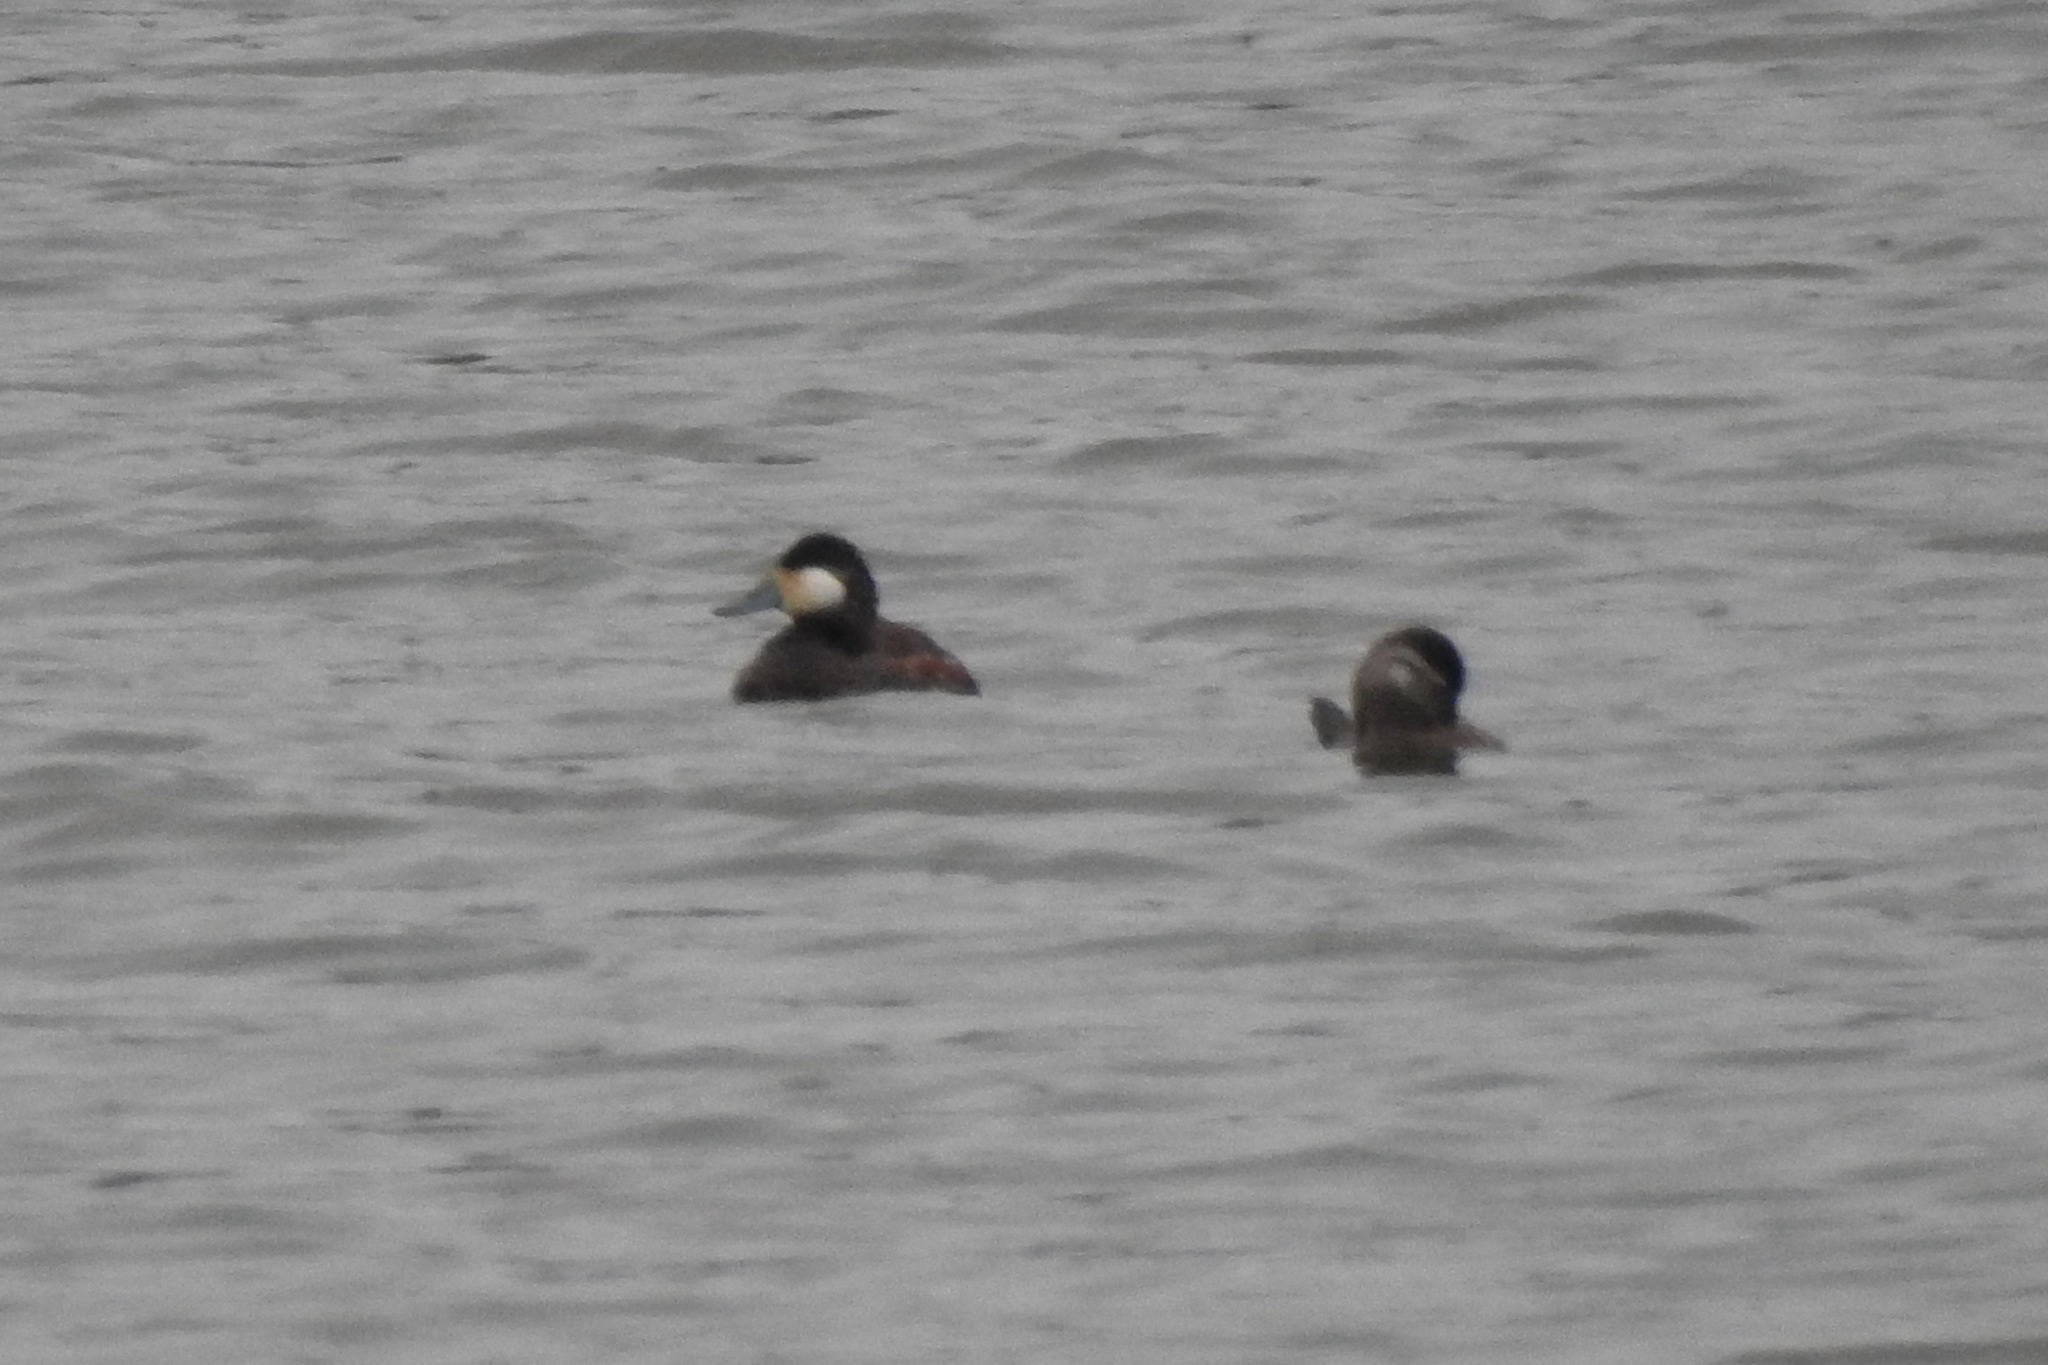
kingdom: Animalia
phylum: Chordata
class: Aves
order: Anseriformes
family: Anatidae
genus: Oxyura
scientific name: Oxyura jamaicensis
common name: Ruddy duck
